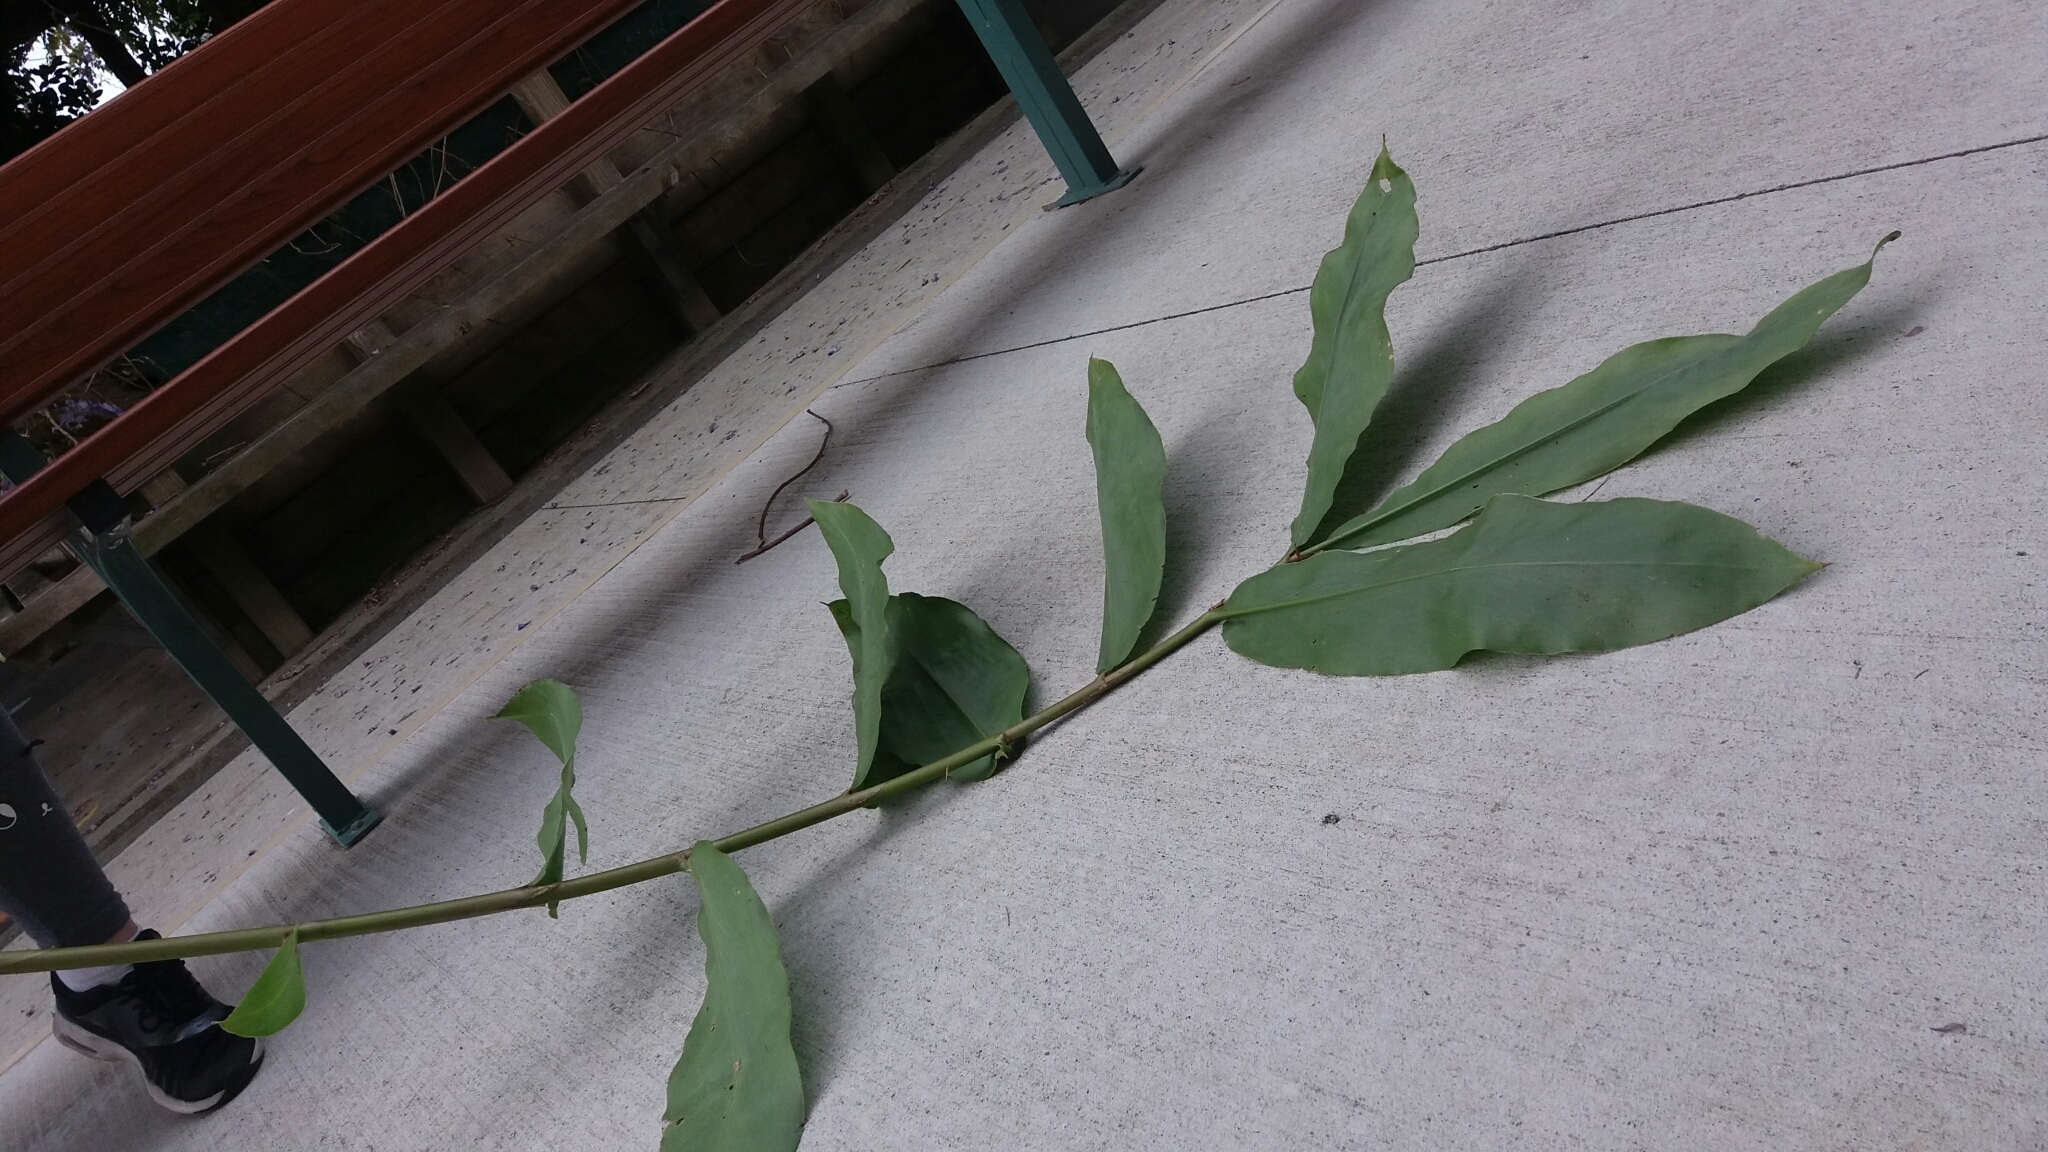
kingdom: Plantae
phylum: Tracheophyta
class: Liliopsida
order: Zingiberales
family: Zingiberaceae
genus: Hedychium
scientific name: Hedychium gardnerianum
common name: Himalayan ginger
